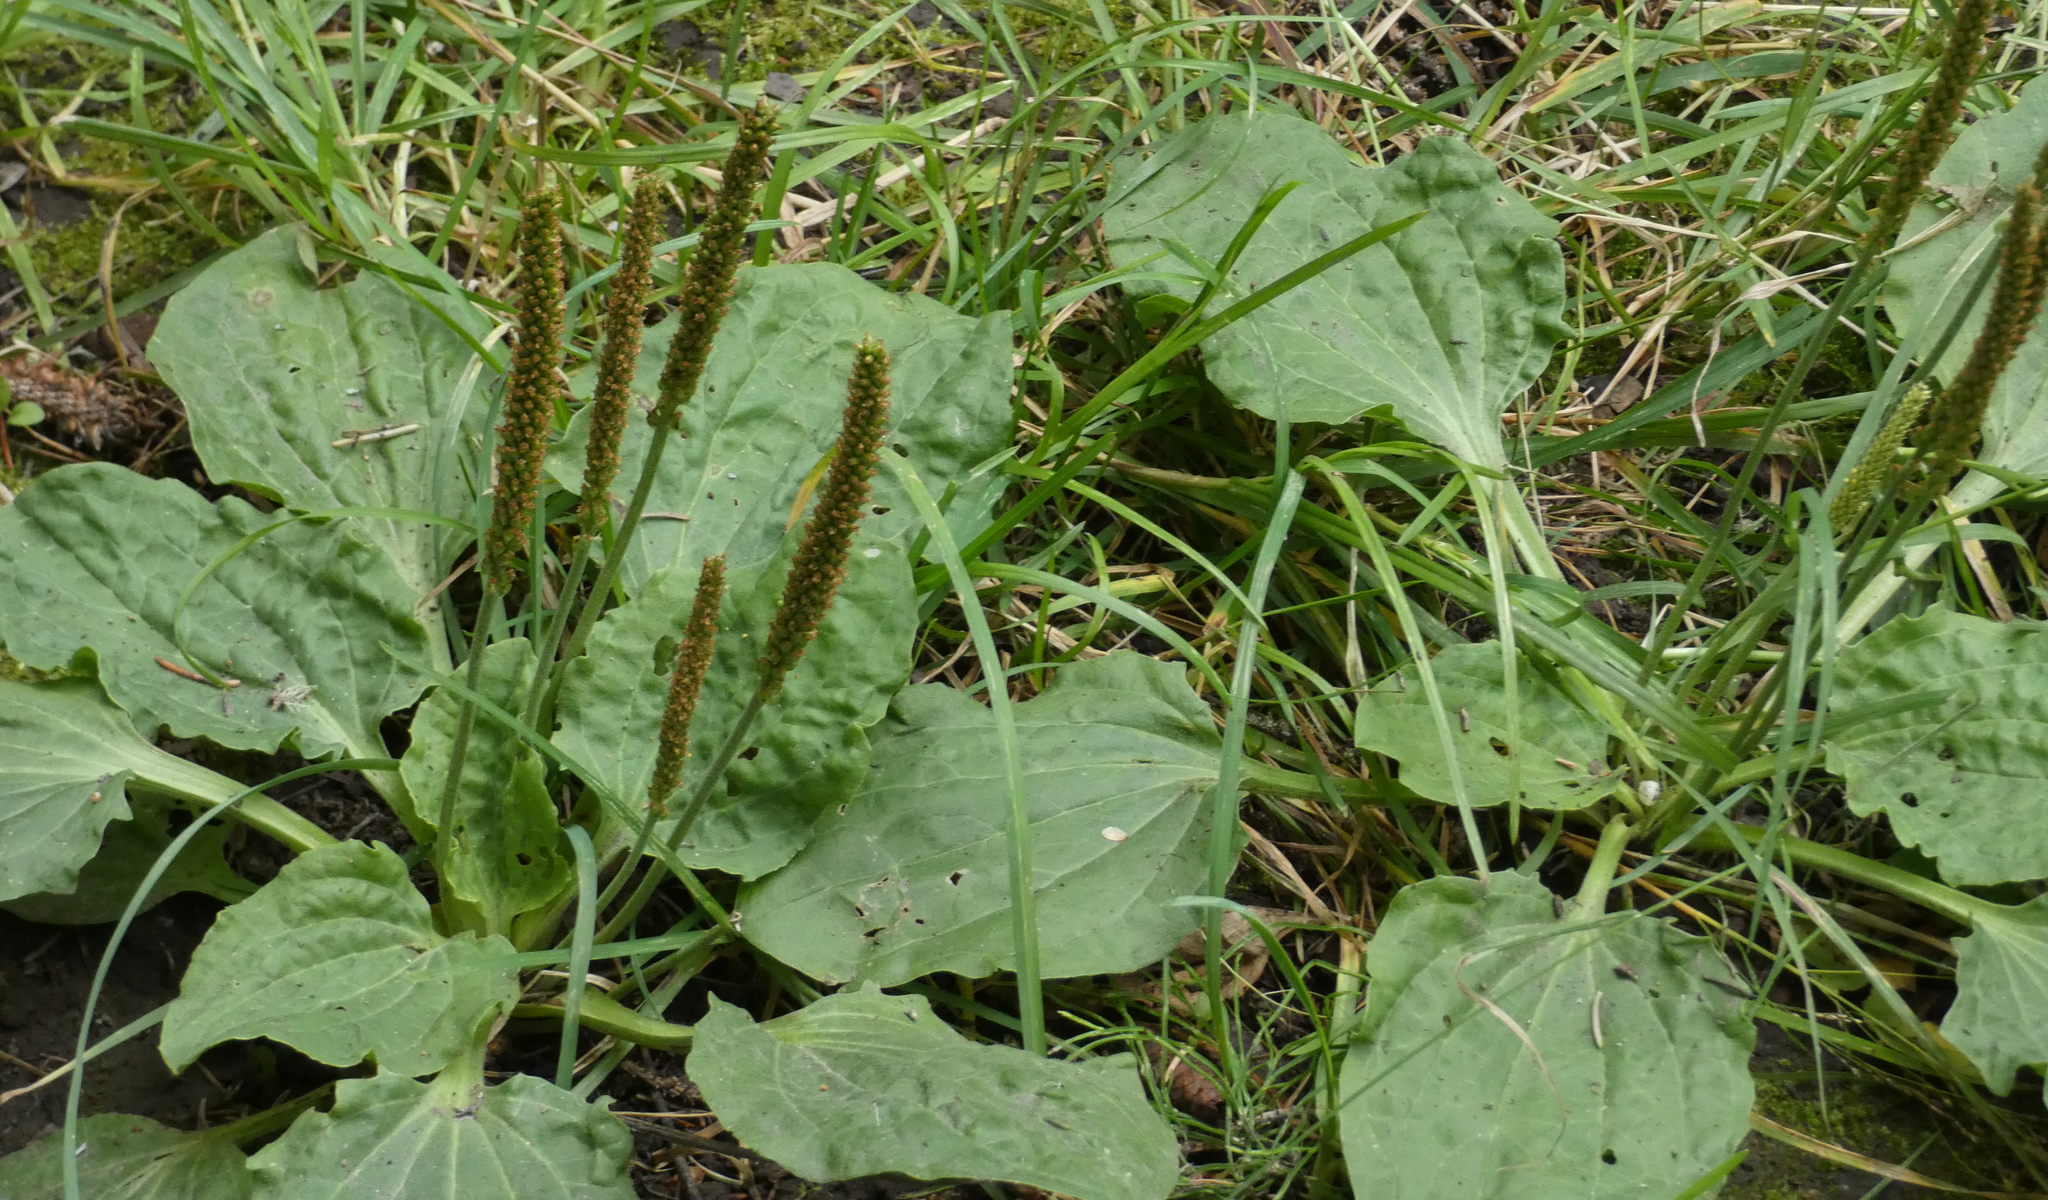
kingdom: Plantae
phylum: Tracheophyta
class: Magnoliopsida
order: Lamiales
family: Plantaginaceae
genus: Plantago
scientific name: Plantago major
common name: Common plantain
